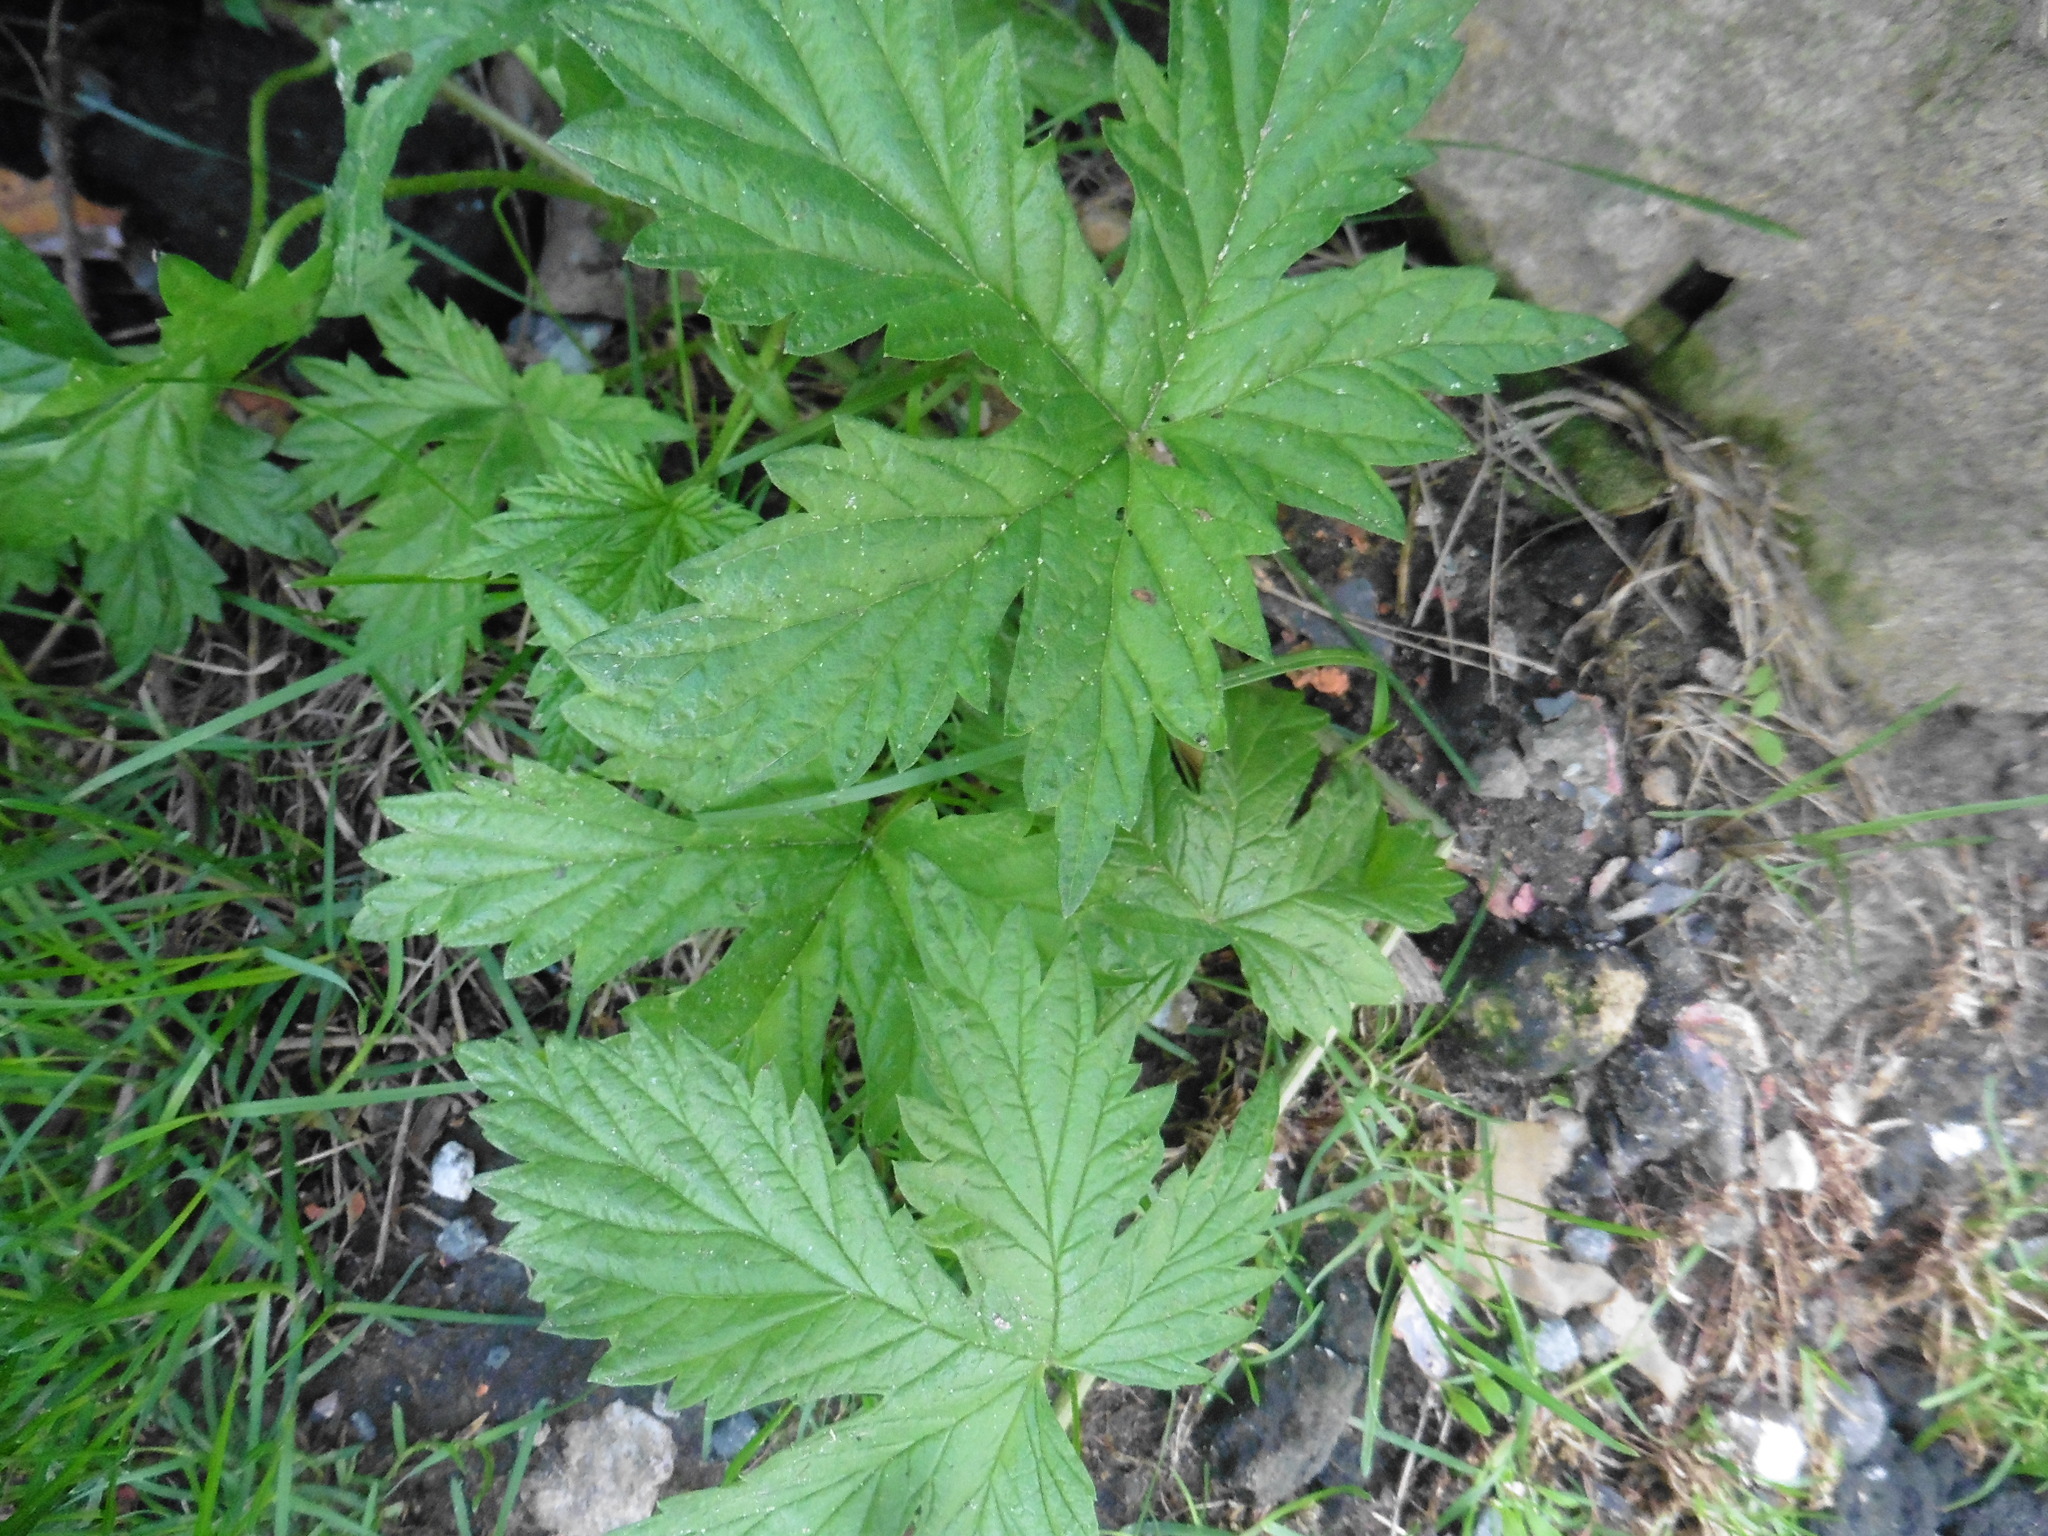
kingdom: Plantae
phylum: Tracheophyta
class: Magnoliopsida
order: Rosales
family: Cannabaceae
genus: Humulus
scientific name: Humulus lupulus
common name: Hop
